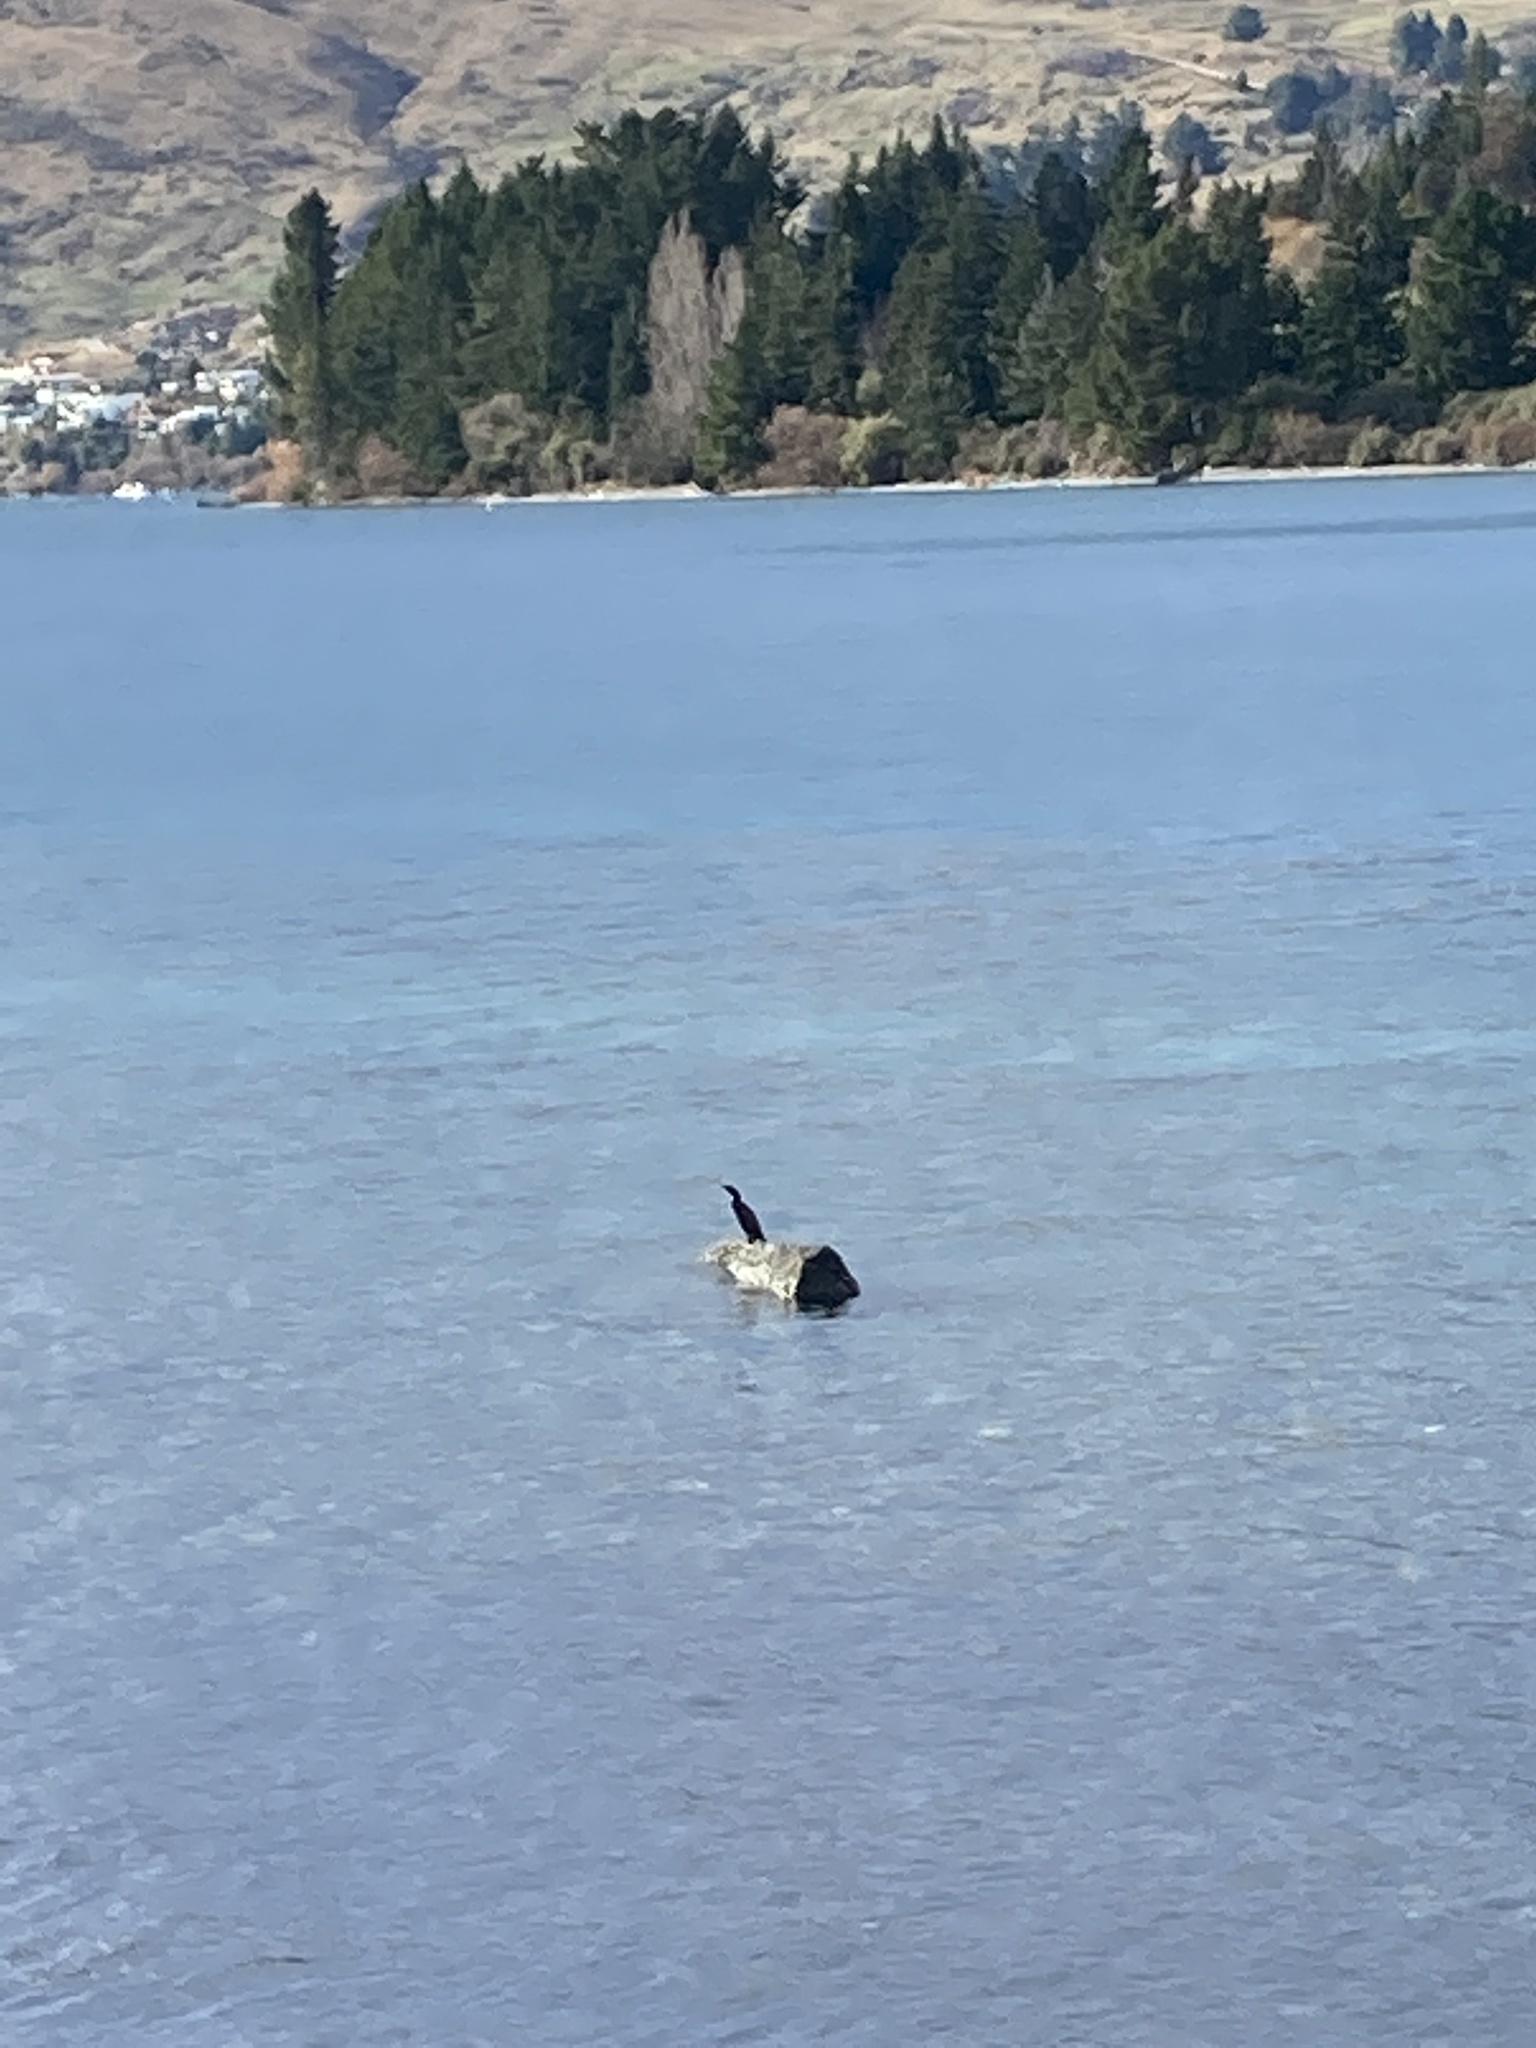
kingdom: Animalia
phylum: Chordata
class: Aves
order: Suliformes
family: Phalacrocoracidae
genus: Microcarbo
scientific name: Microcarbo melanoleucos
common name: Little pied cormorant
